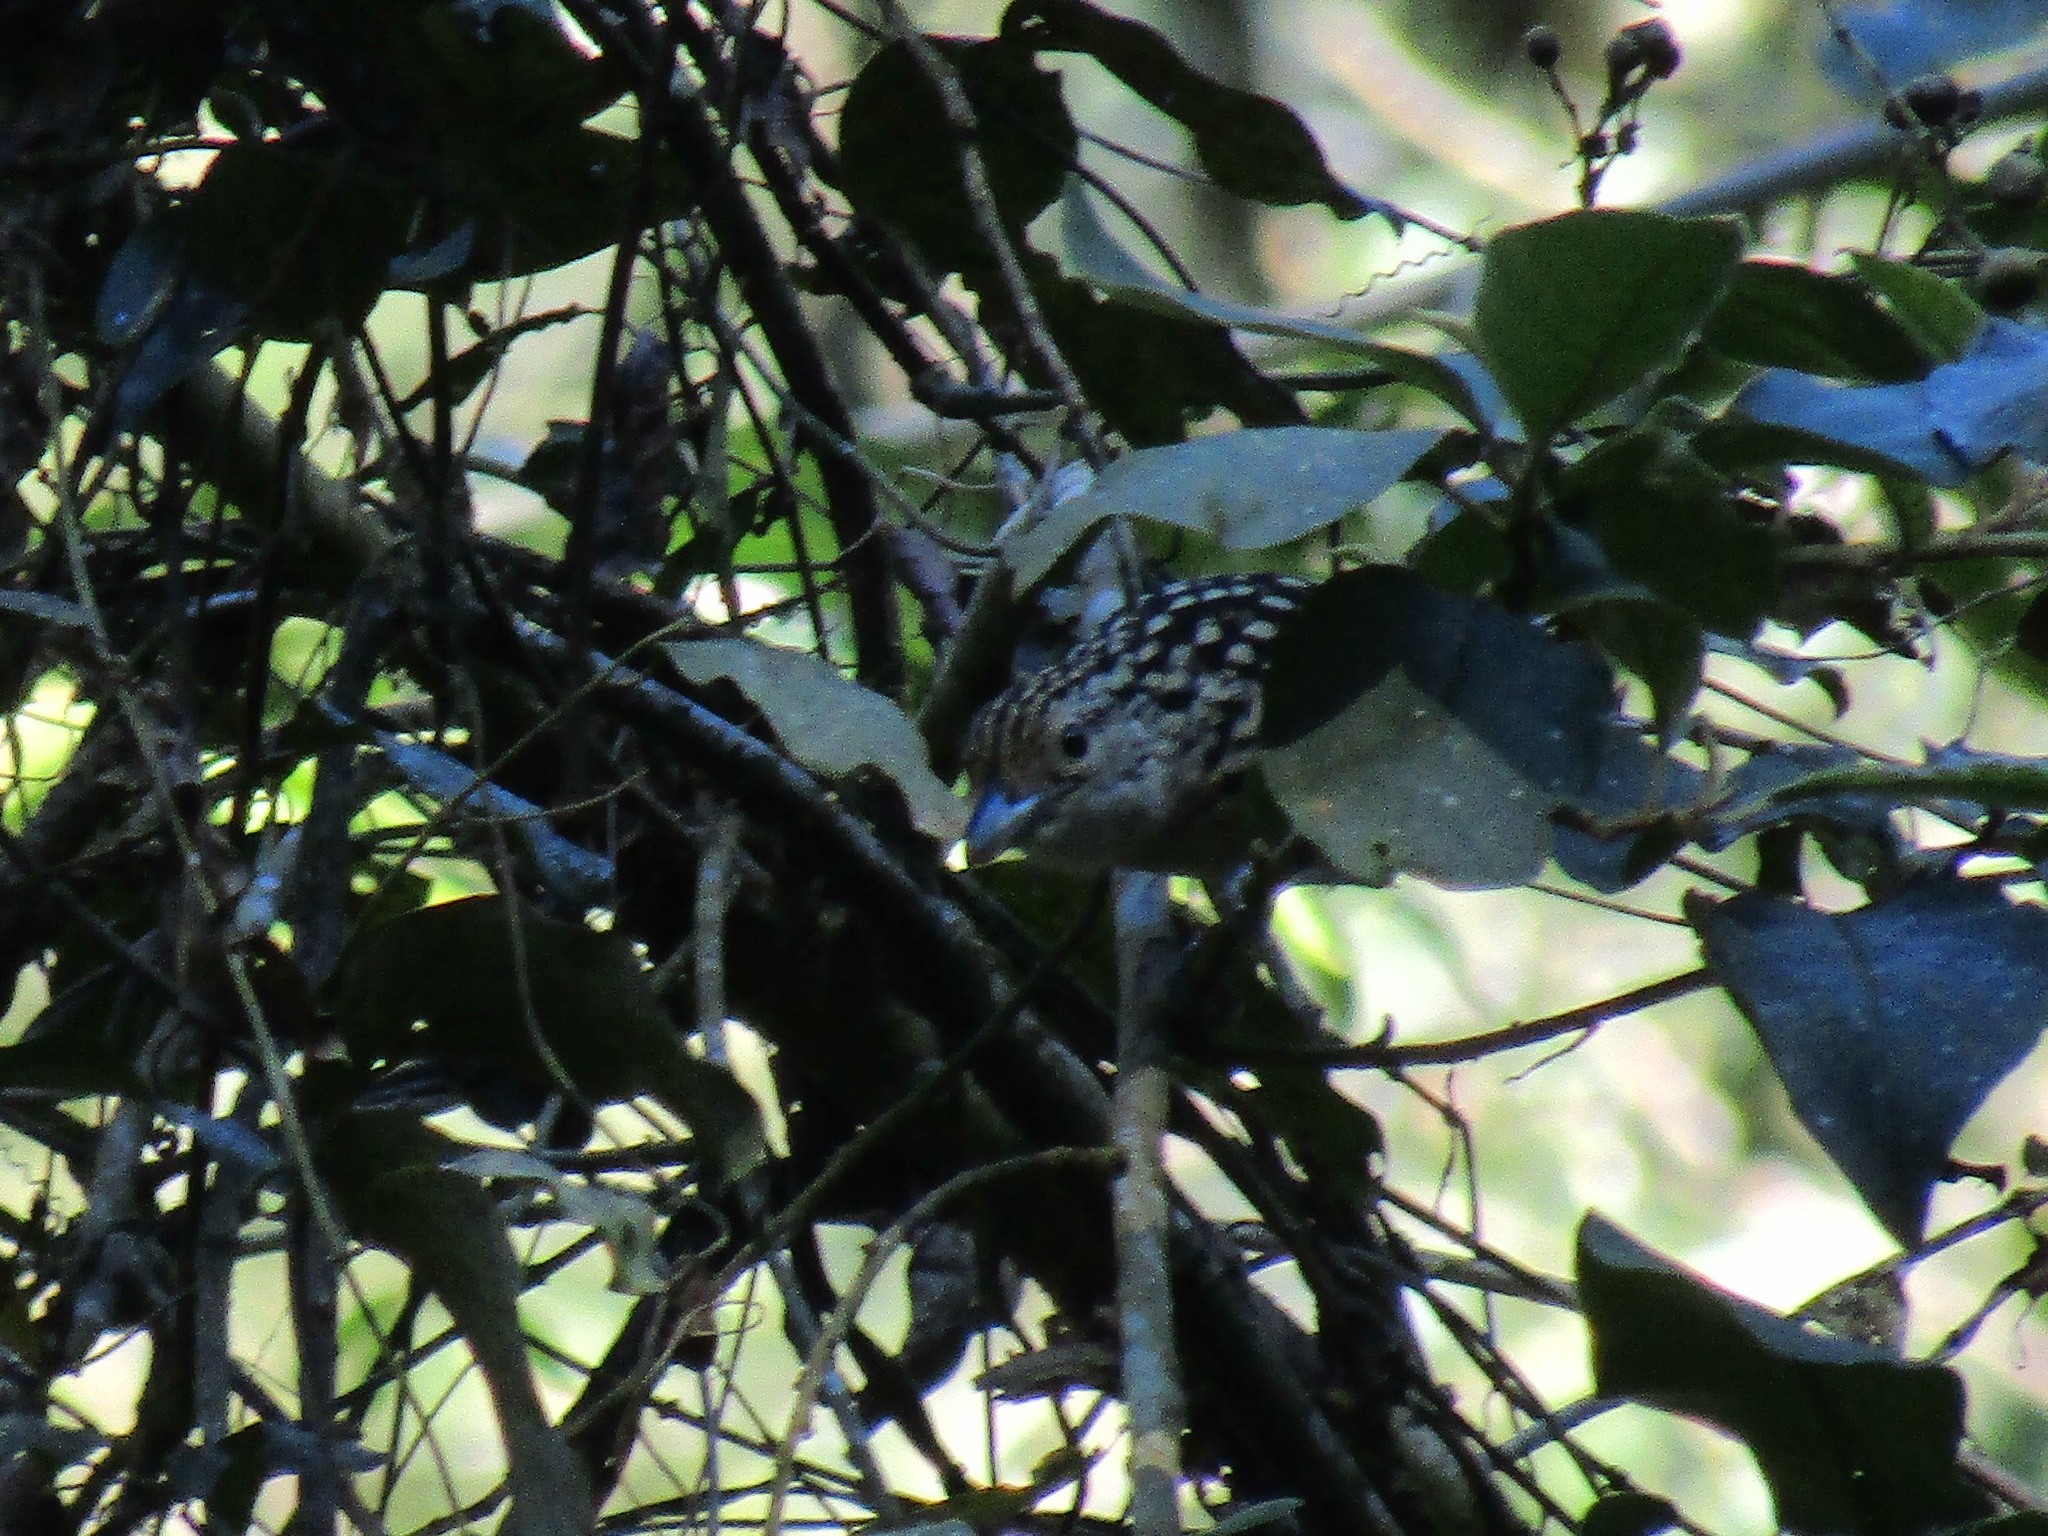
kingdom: Animalia
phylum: Chordata
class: Aves
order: Passeriformes
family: Thamnophilidae
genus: Hypoedaleus
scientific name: Hypoedaleus guttatus
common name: Spot-backed antshrike
